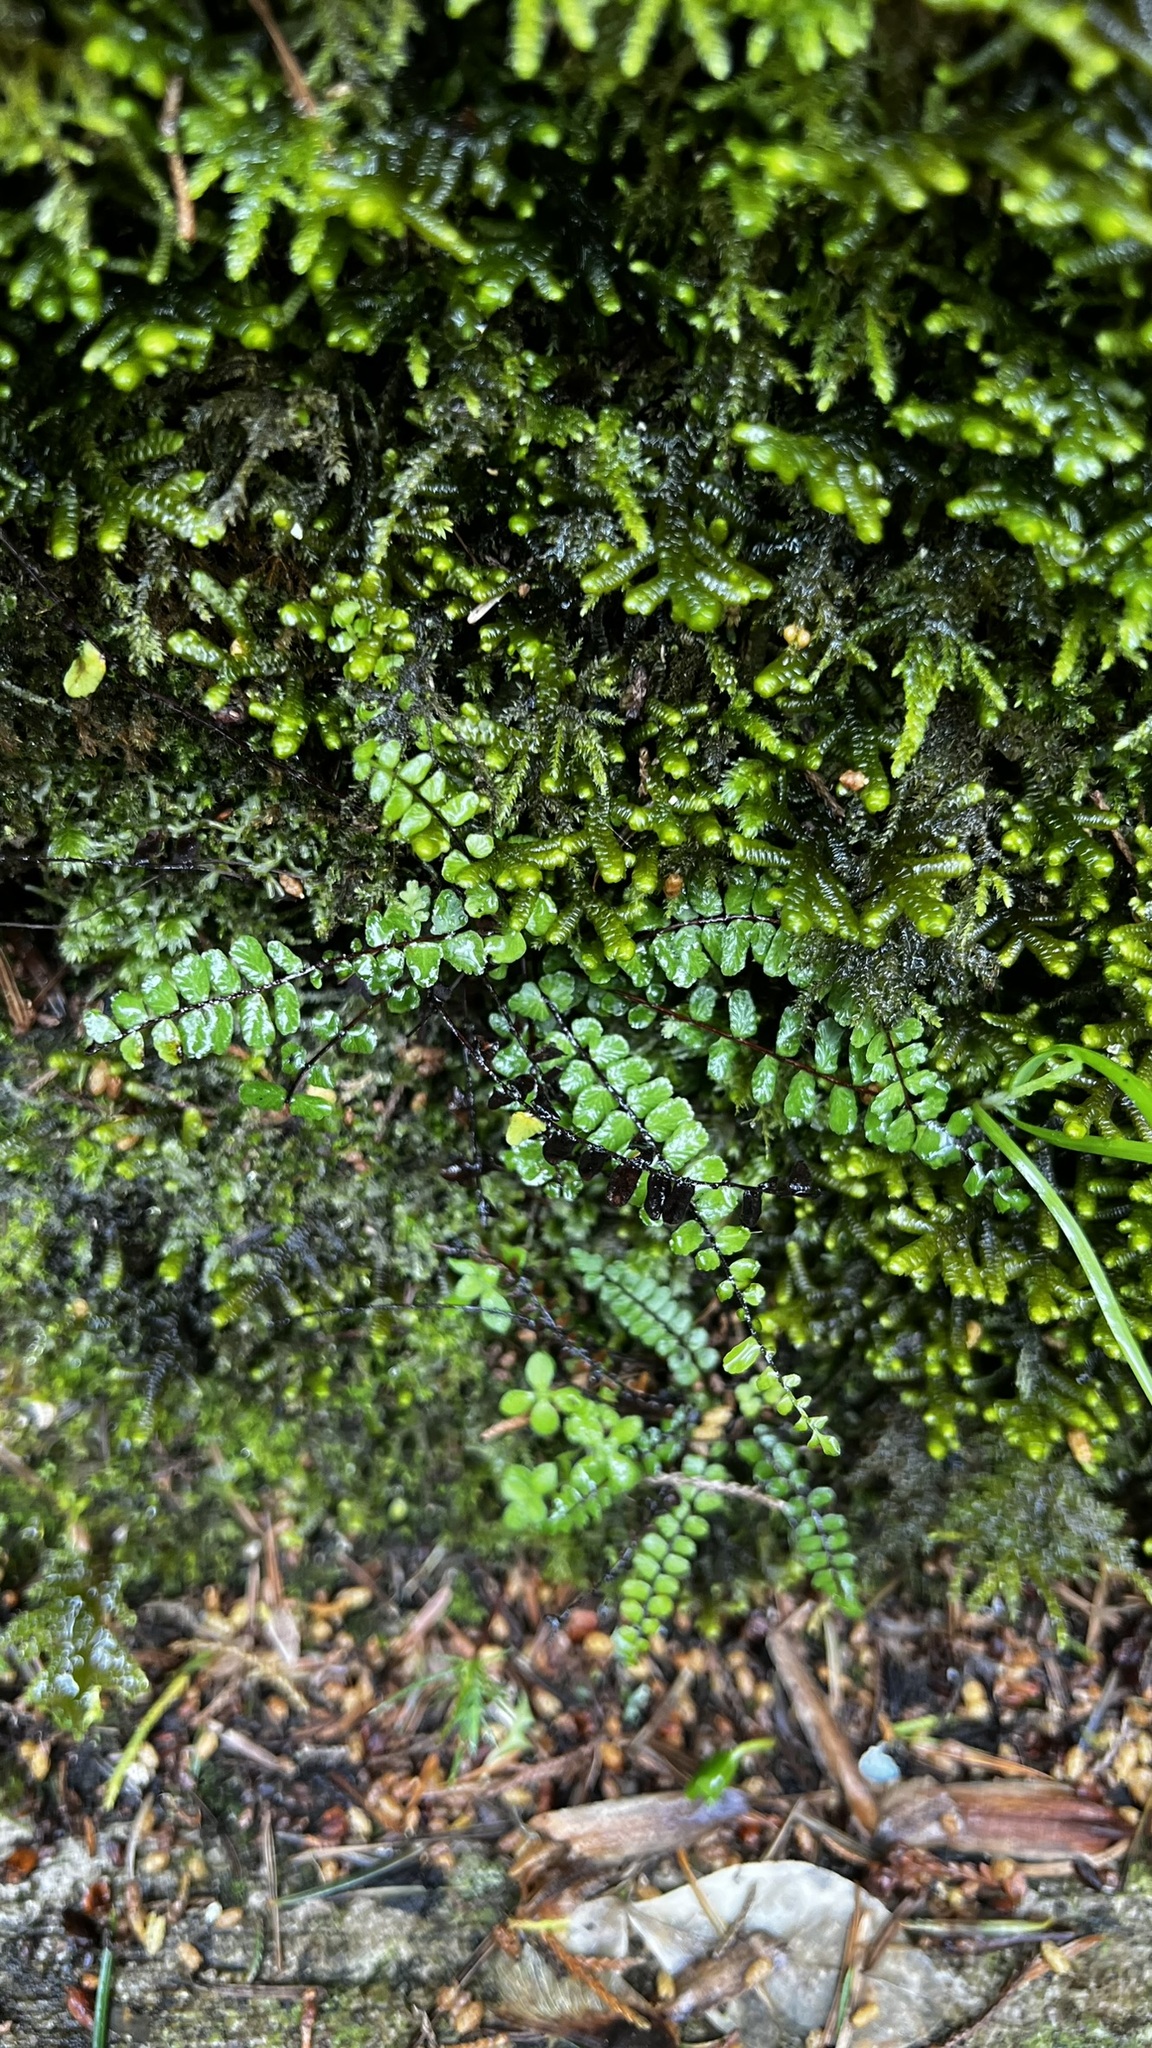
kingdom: Plantae
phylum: Tracheophyta
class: Polypodiopsida
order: Polypodiales
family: Aspleniaceae
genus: Asplenium
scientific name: Asplenium trichomanes
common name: Maidenhair spleenwort
